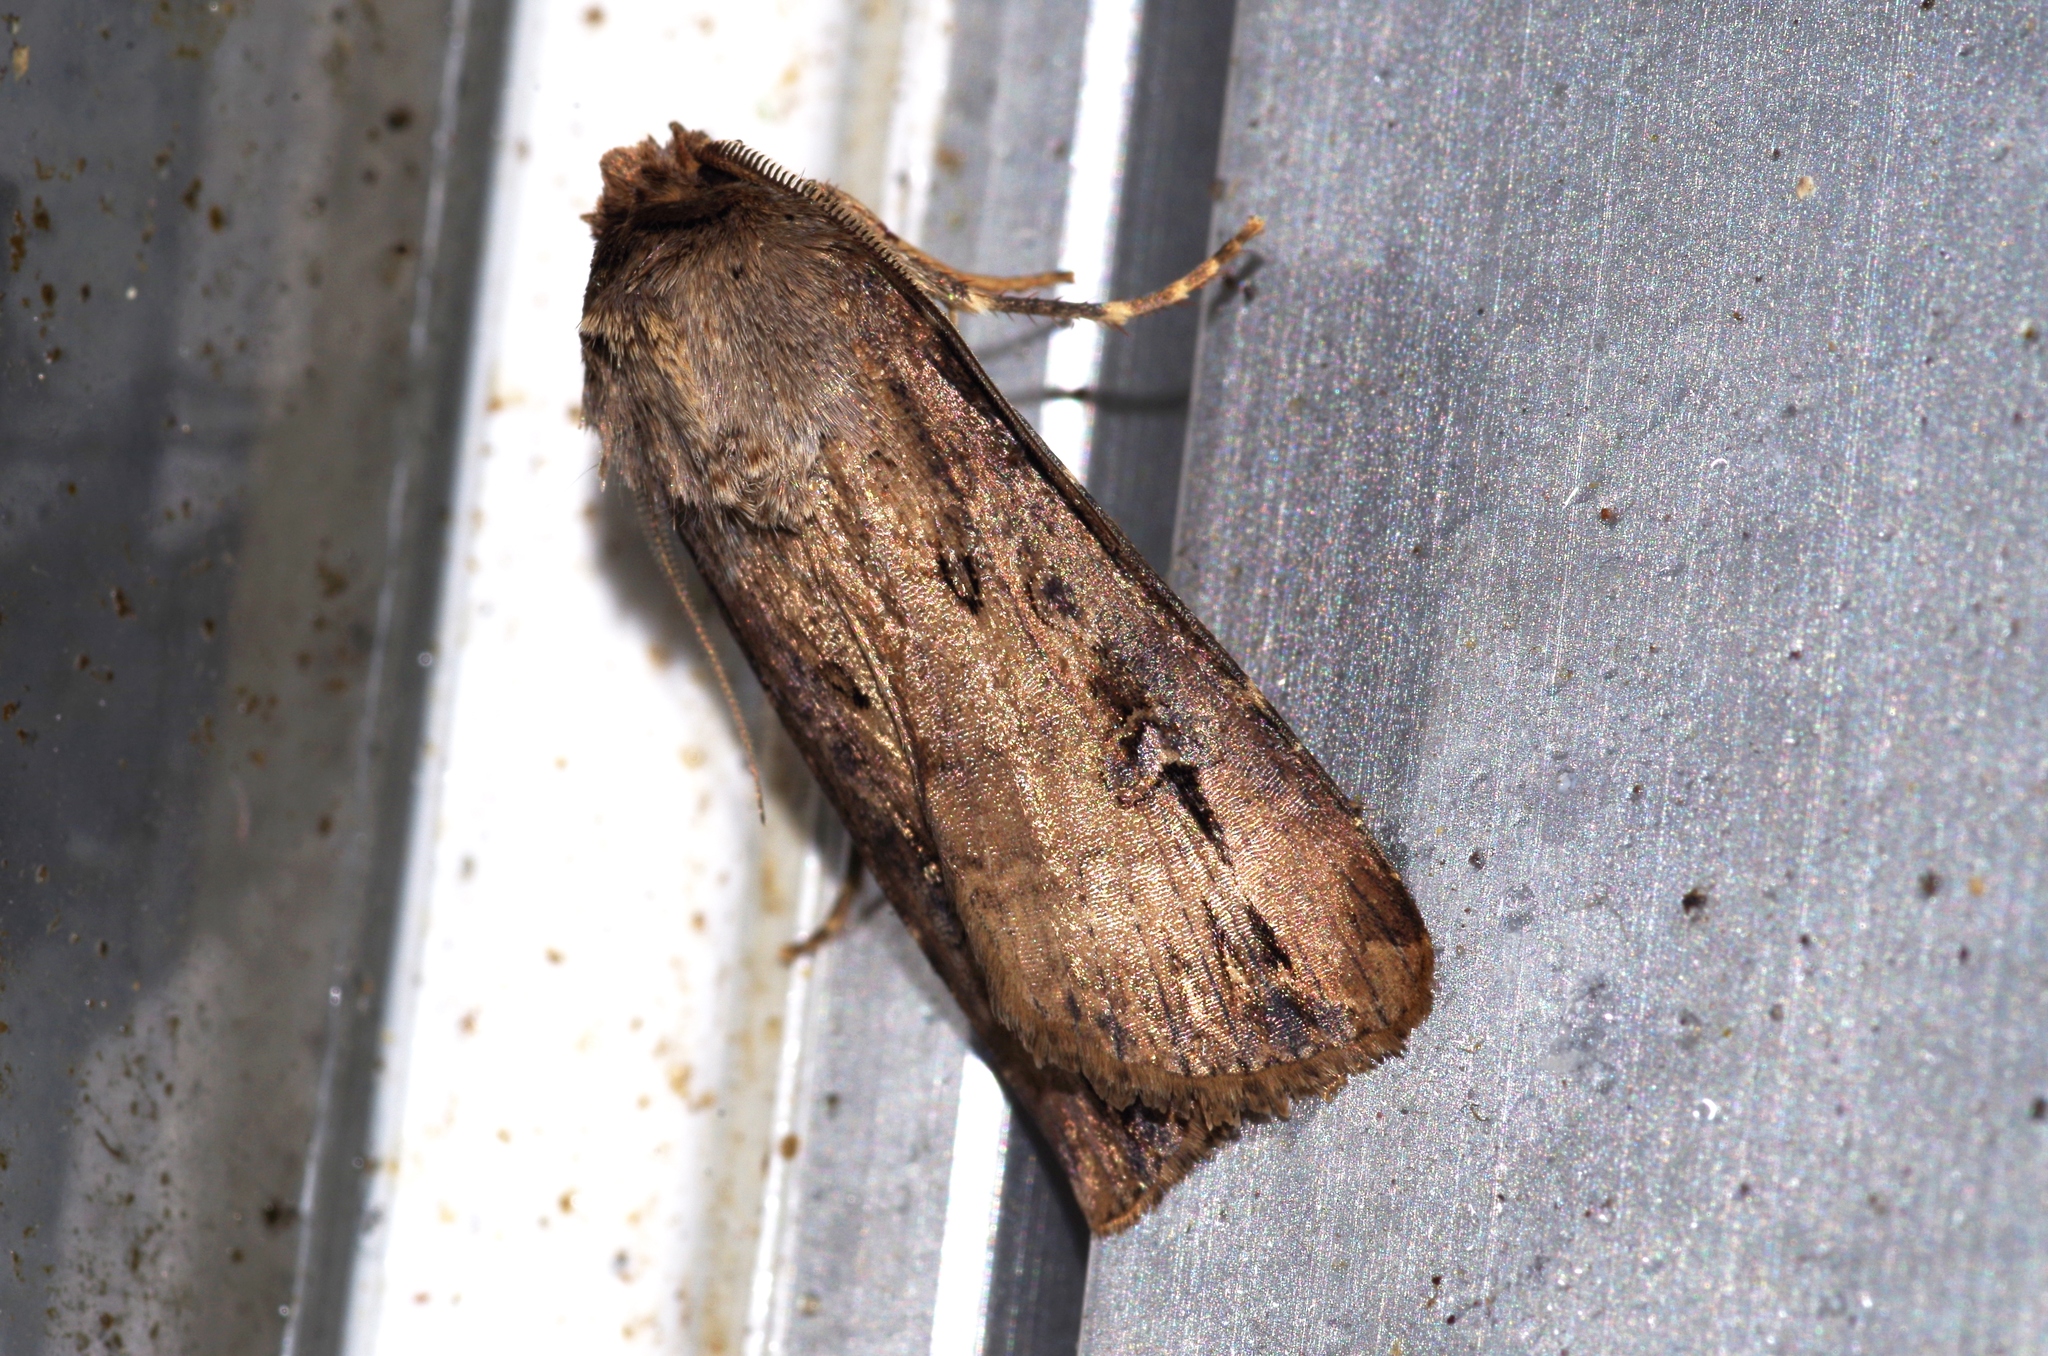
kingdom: Animalia
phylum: Arthropoda
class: Insecta
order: Lepidoptera
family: Noctuidae
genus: Agrotis
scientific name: Agrotis ipsilon
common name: Dark sword-grass
